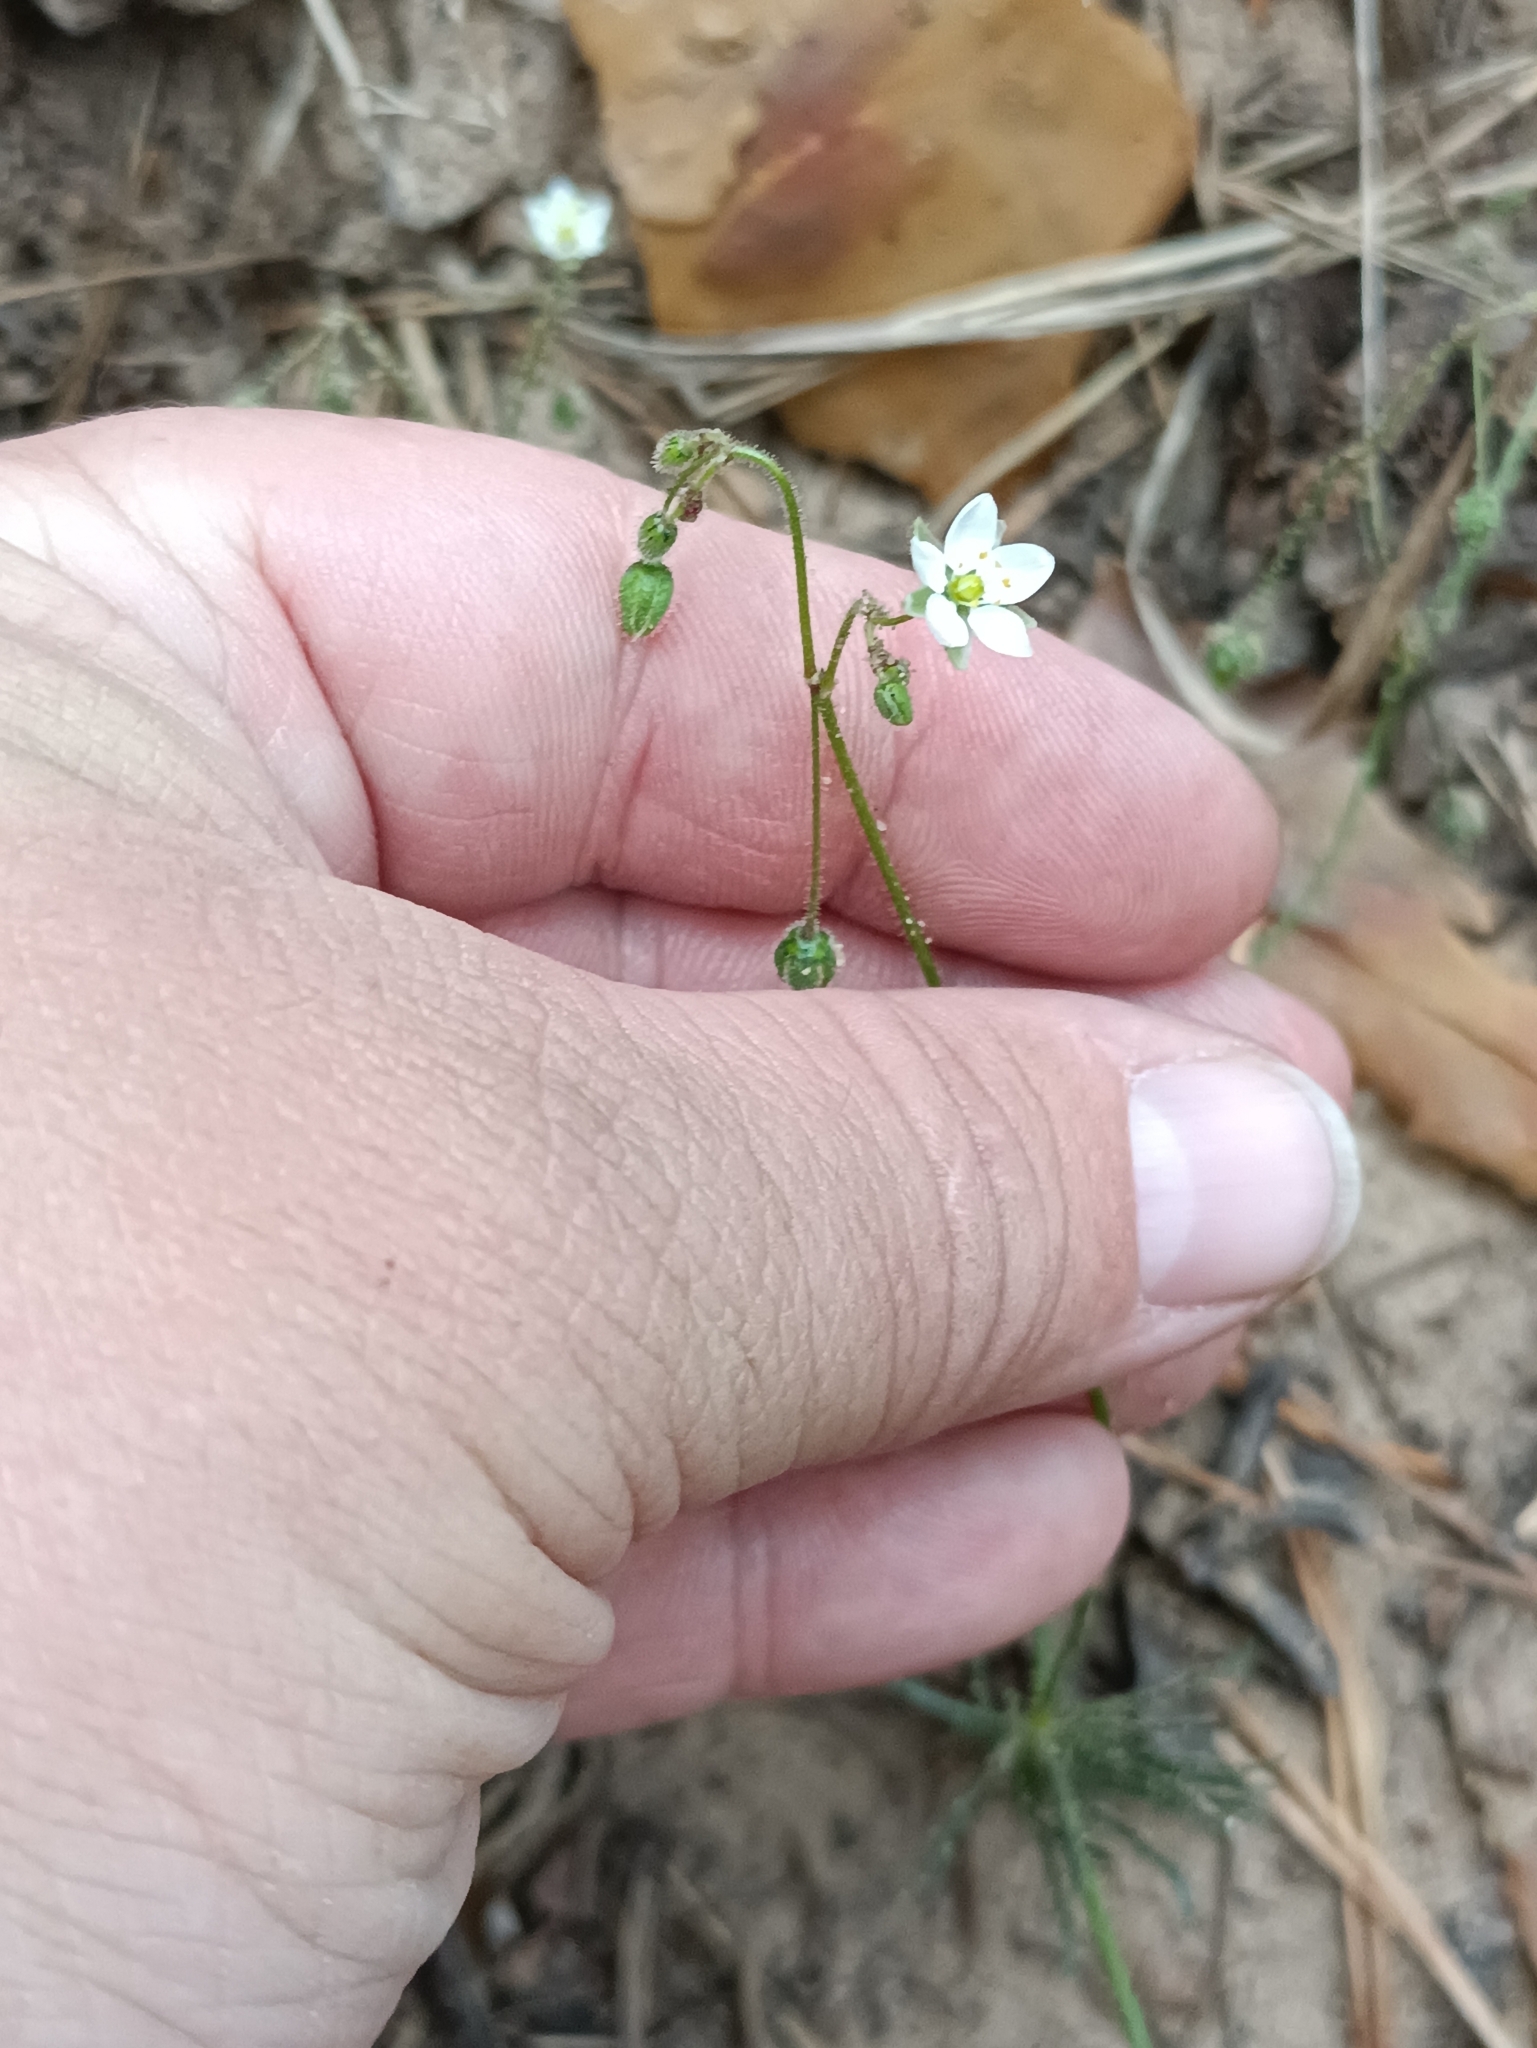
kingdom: Plantae
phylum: Tracheophyta
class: Magnoliopsida
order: Caryophyllales
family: Caryophyllaceae
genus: Spergula
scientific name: Spergula arvensis
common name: Corn spurrey
